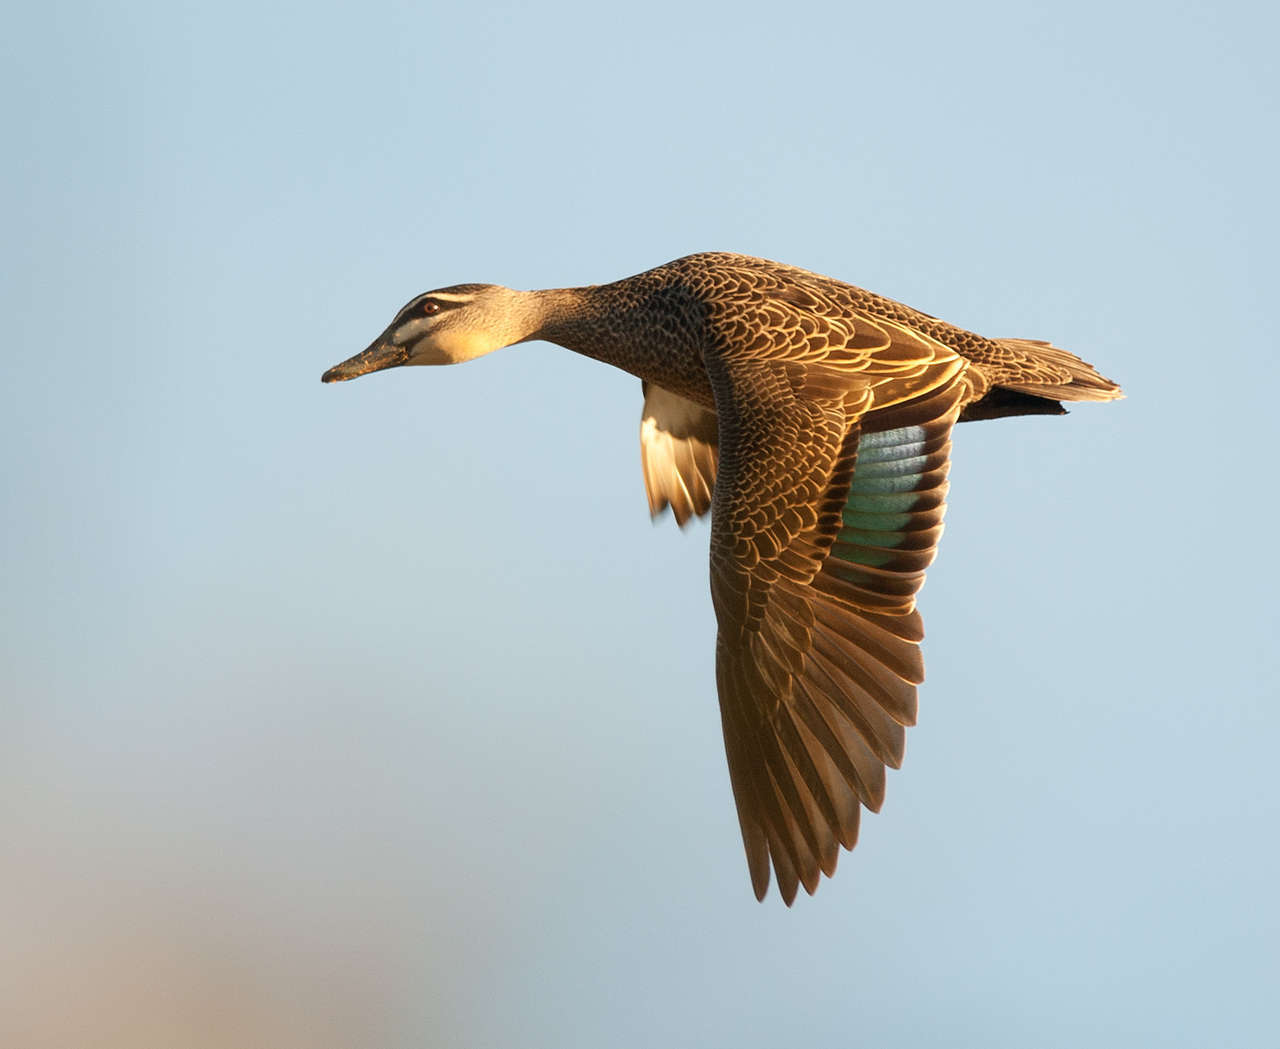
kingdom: Animalia
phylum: Chordata
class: Aves
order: Anseriformes
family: Anatidae
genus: Anas
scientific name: Anas superciliosa
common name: Pacific black duck
